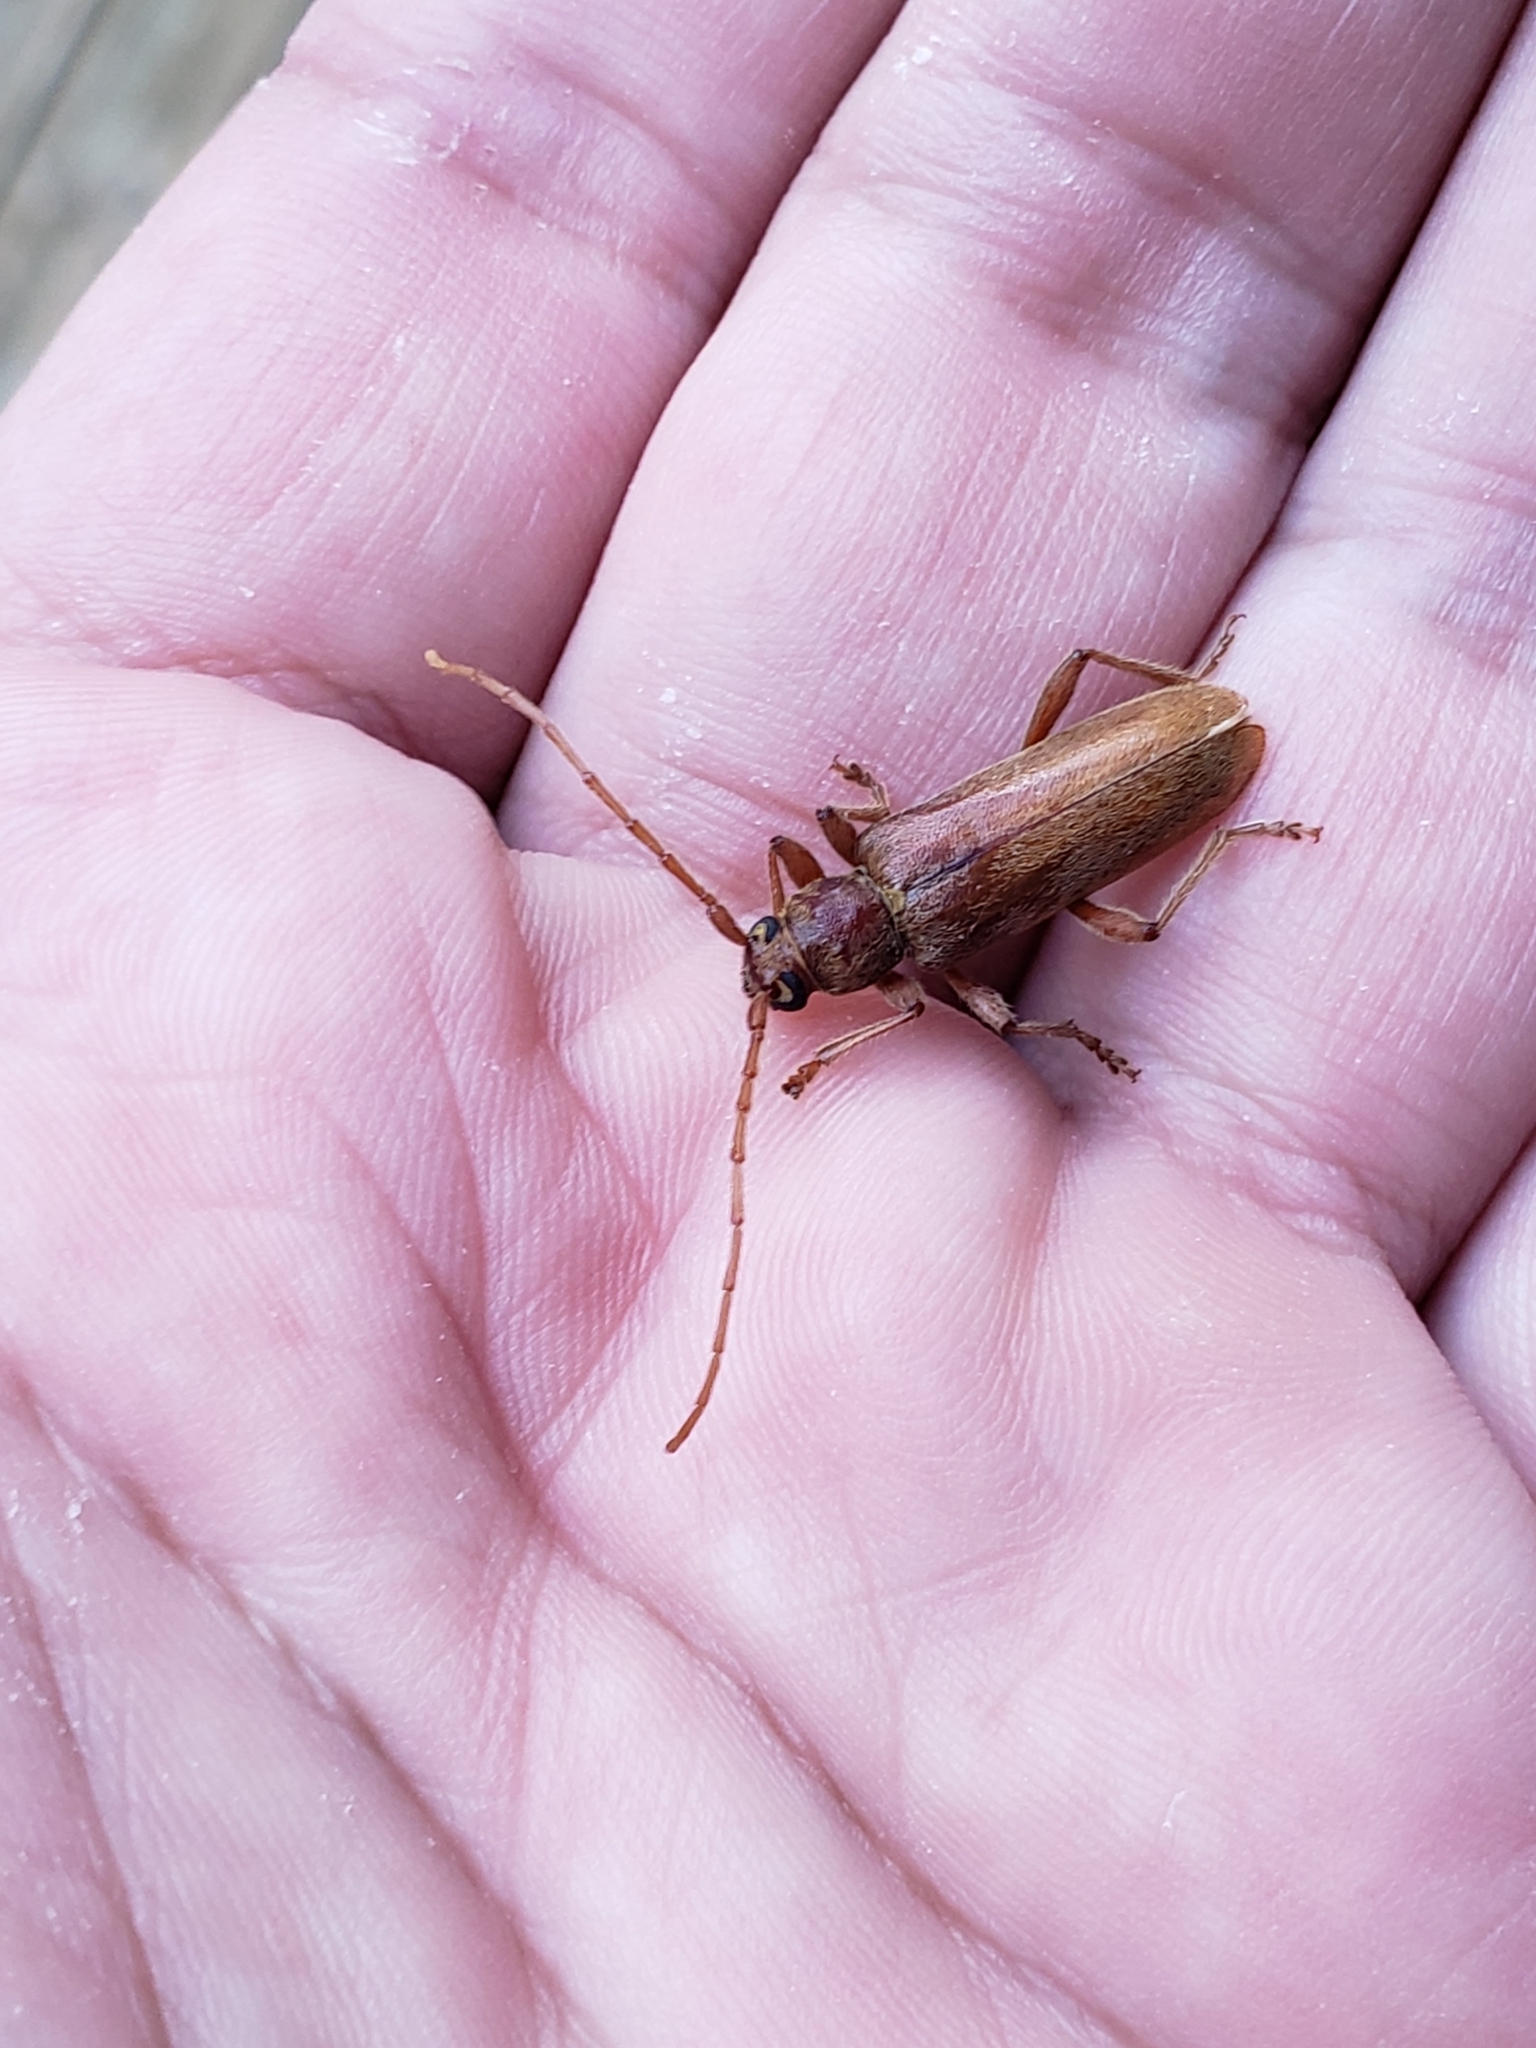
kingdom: Animalia
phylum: Arthropoda
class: Insecta
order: Coleoptera
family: Cerambycidae
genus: Hesperophanes
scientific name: Hesperophanes pubescens
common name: Longhorned wood-boring beetle
